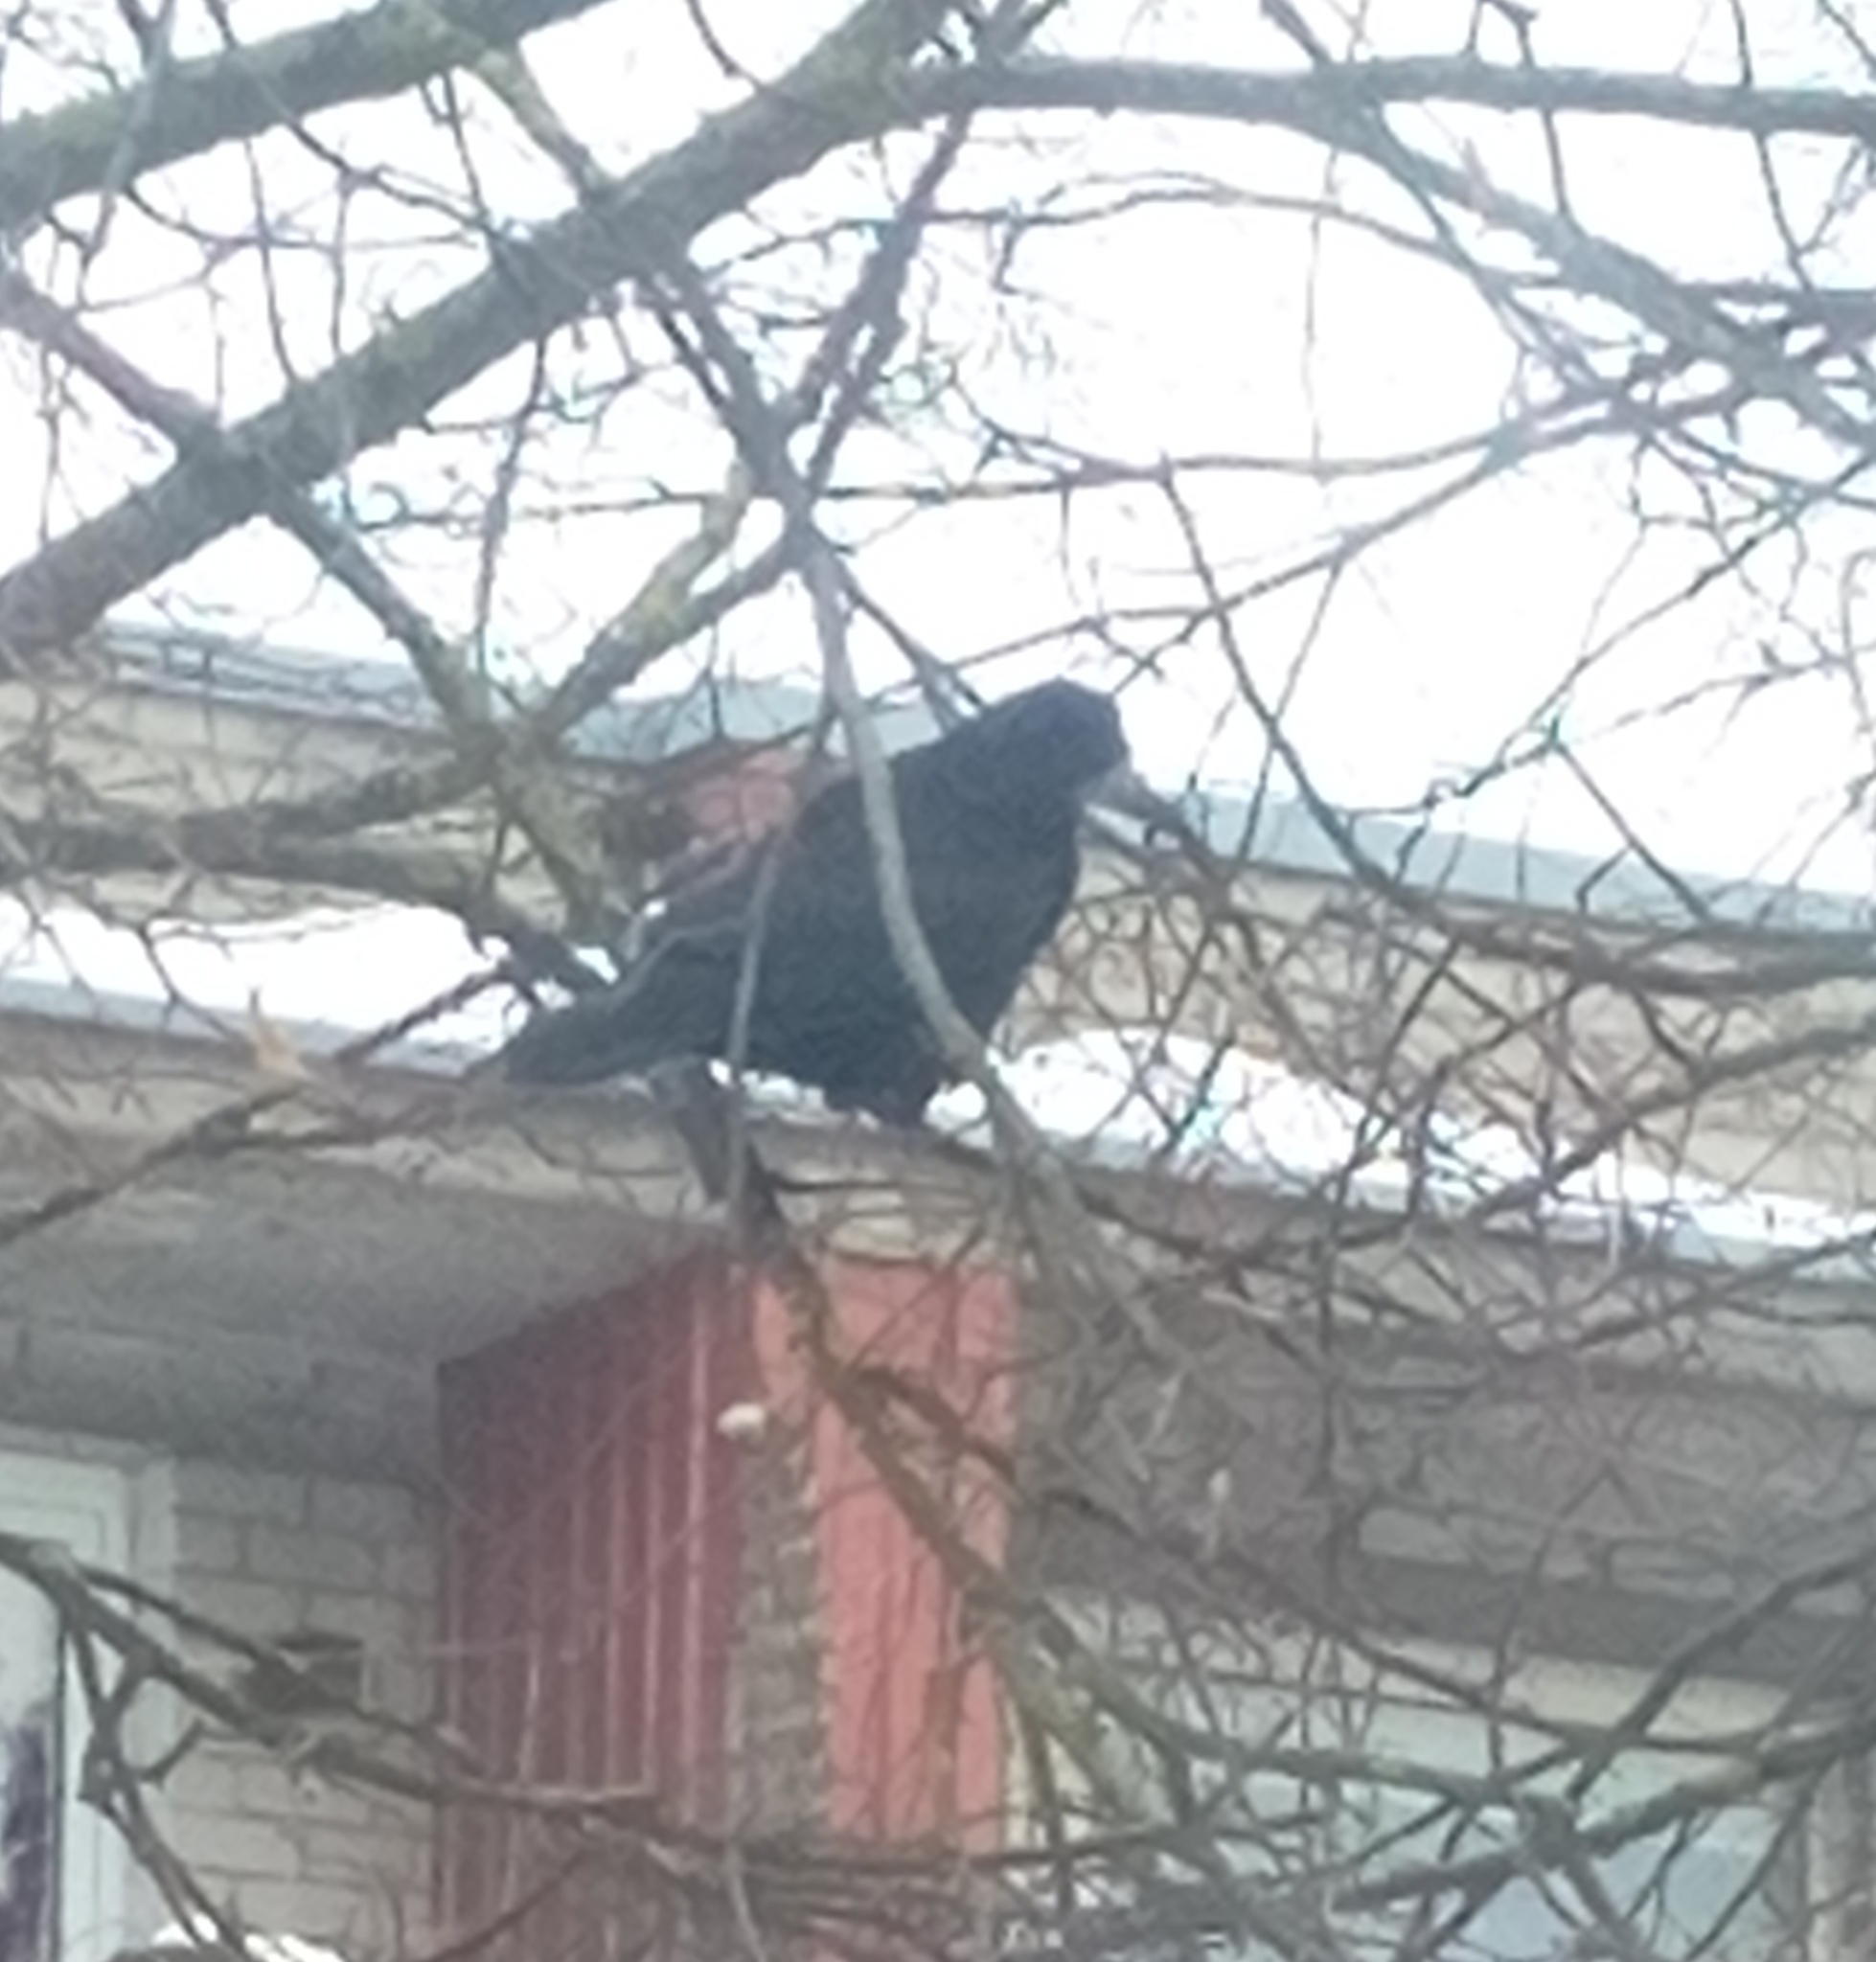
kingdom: Animalia
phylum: Chordata
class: Aves
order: Passeriformes
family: Corvidae
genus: Corvus
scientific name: Corvus frugilegus
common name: Rook
